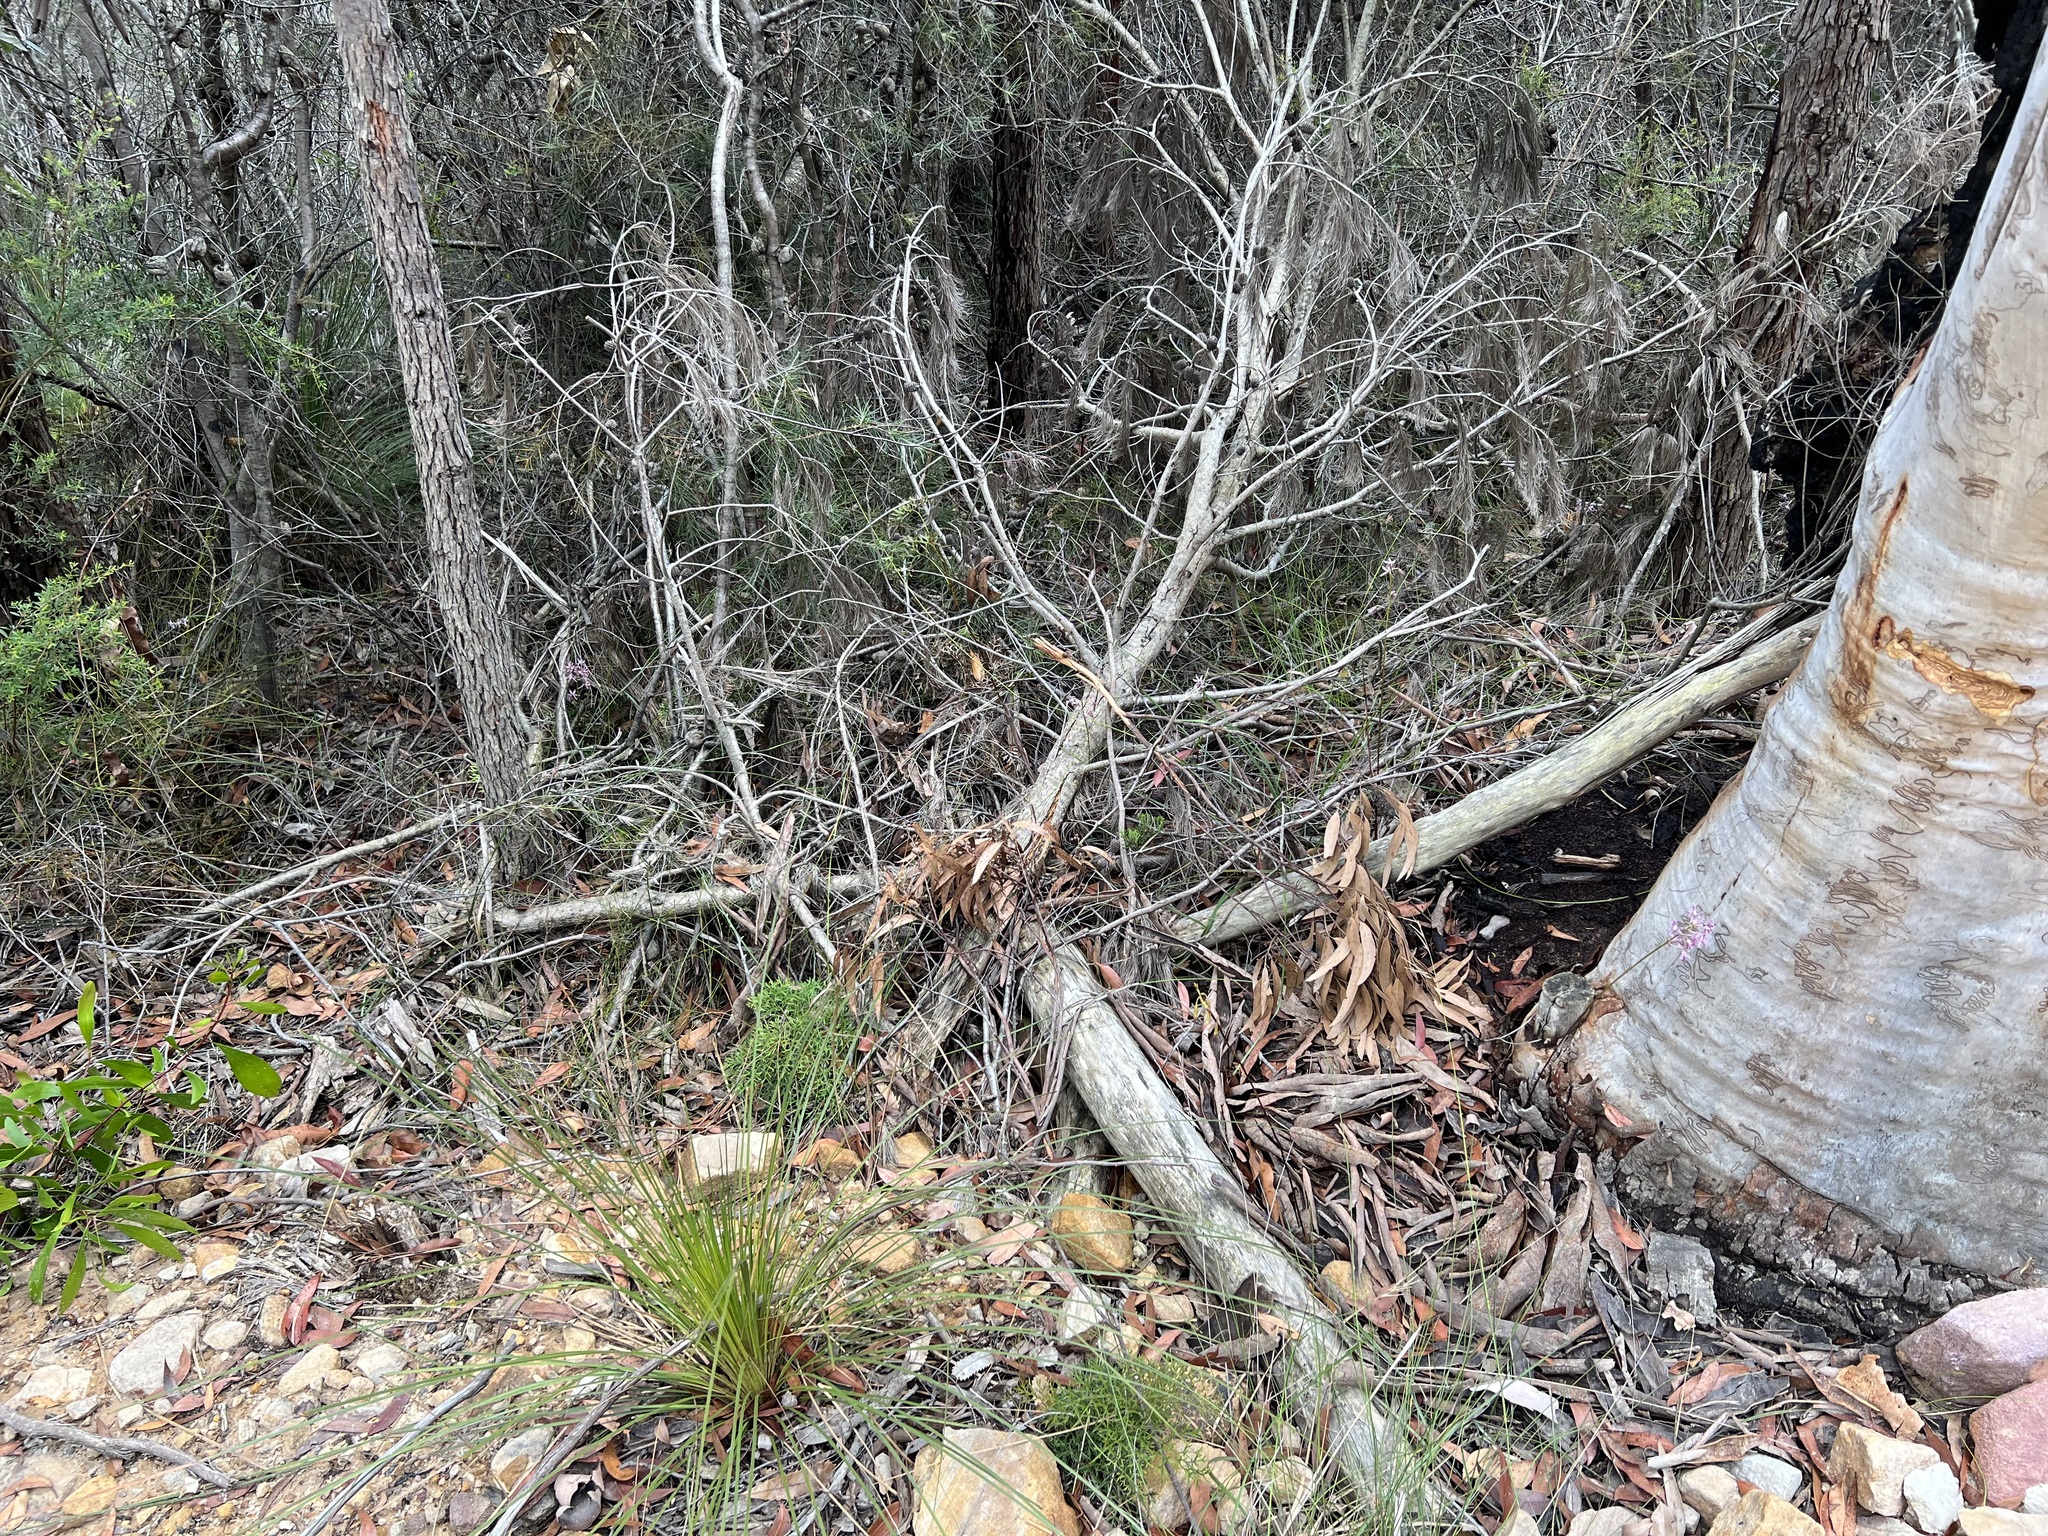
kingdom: Plantae
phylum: Tracheophyta
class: Liliopsida
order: Asparagales
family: Orchidaceae
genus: Dipodium
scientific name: Dipodium variegatum
